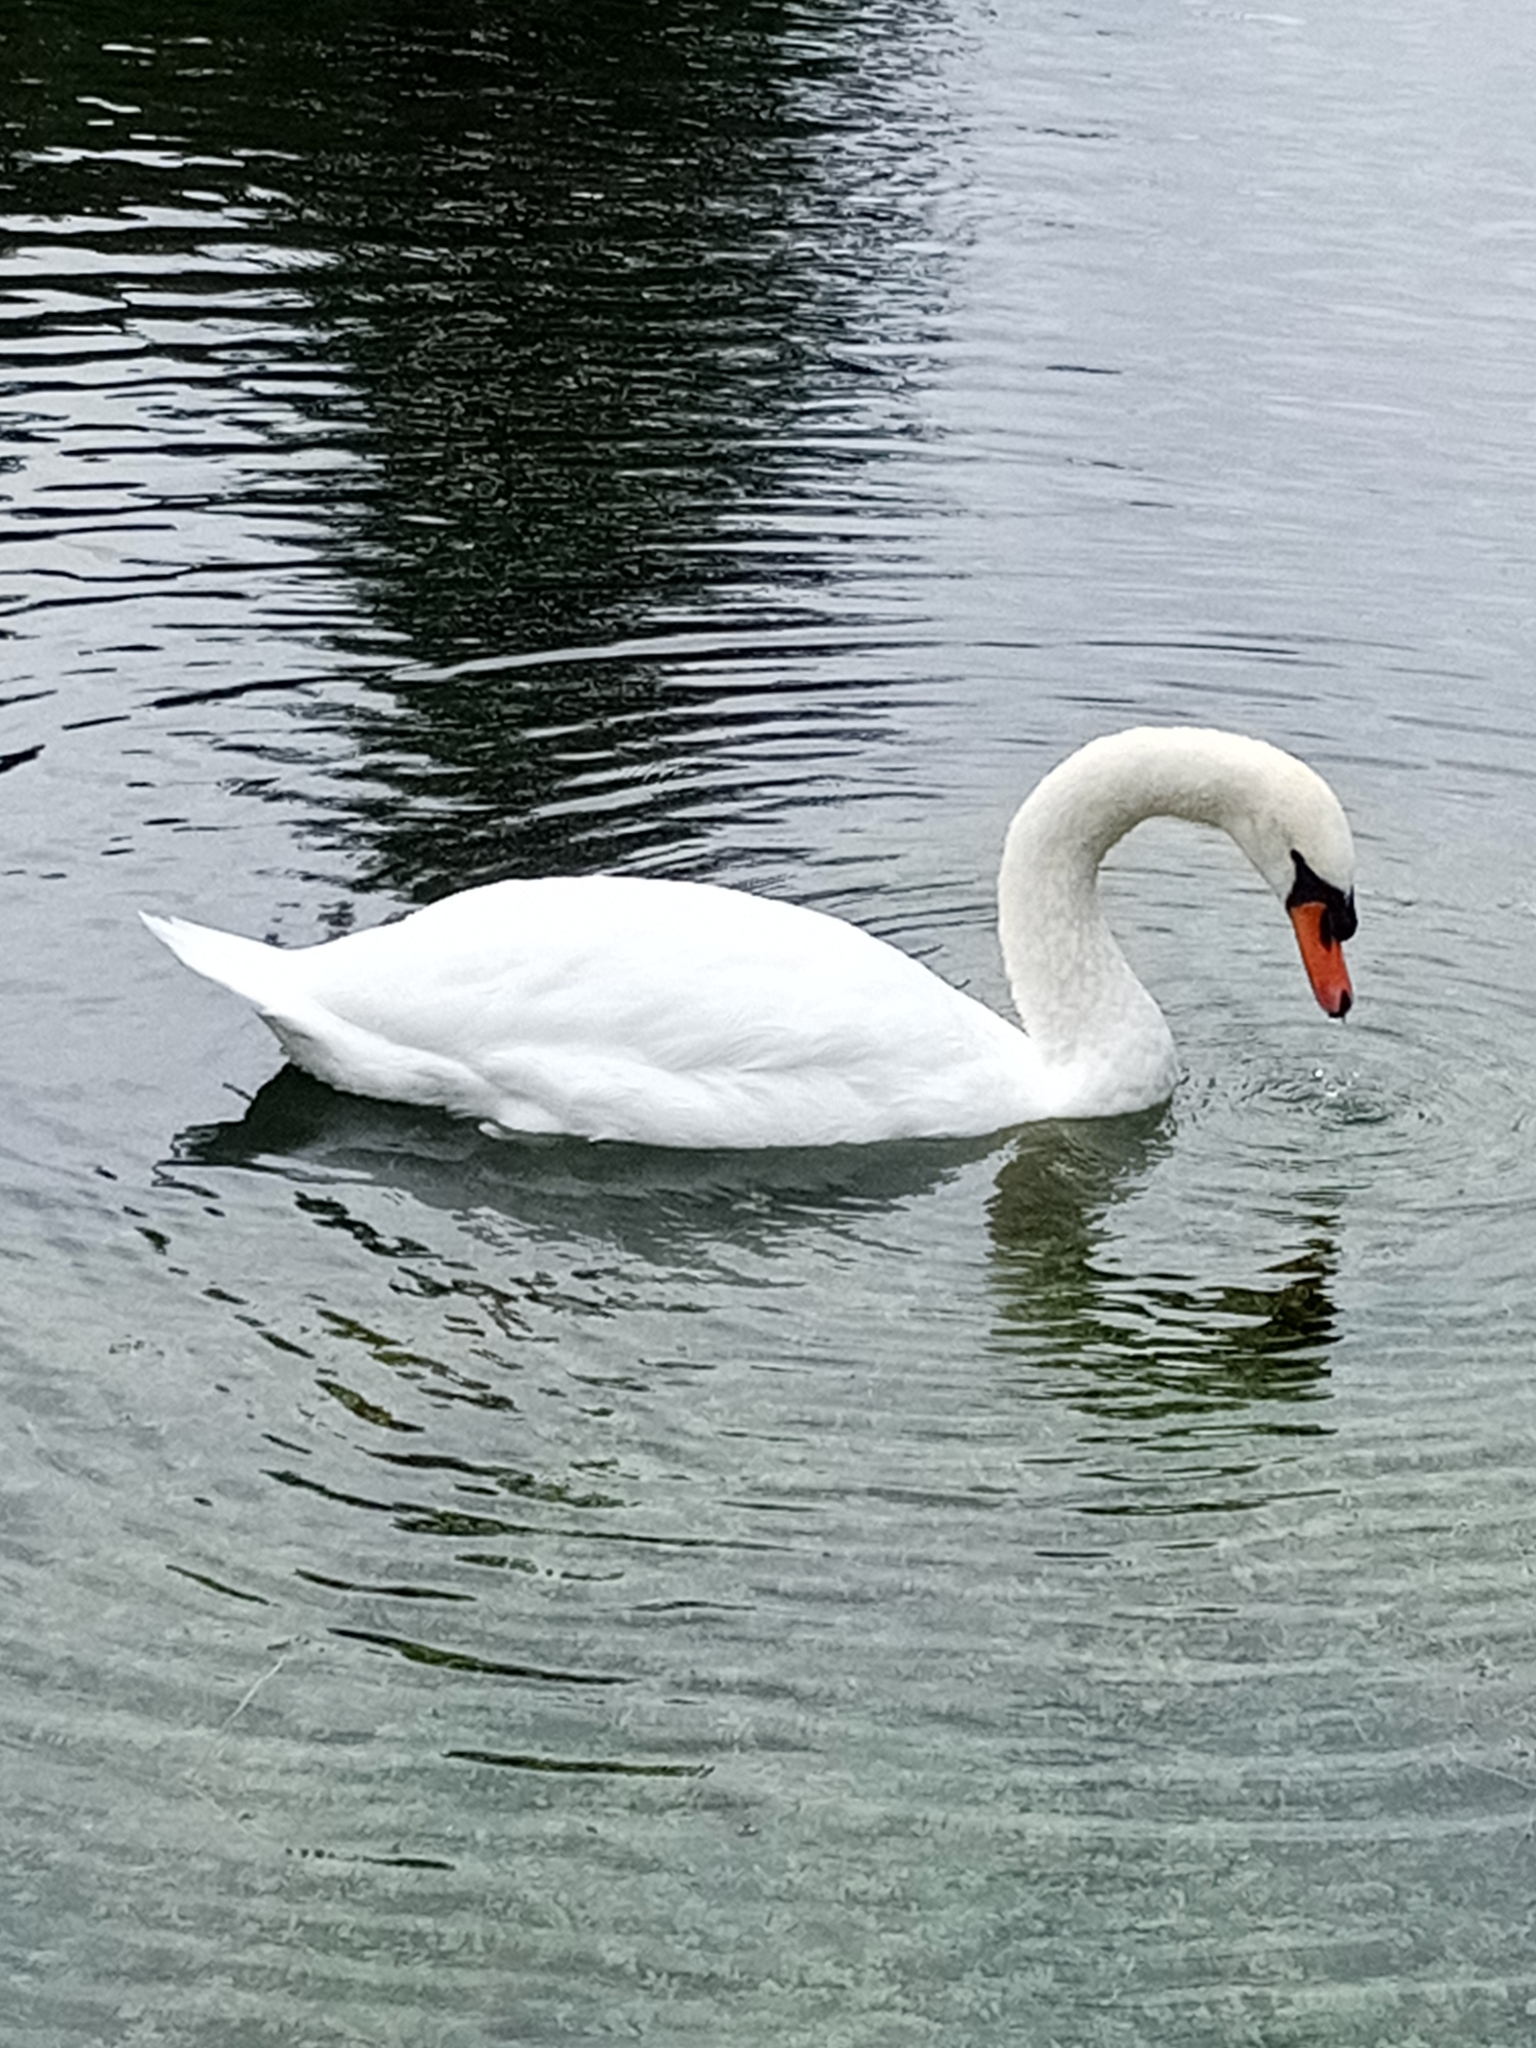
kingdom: Animalia
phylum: Chordata
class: Aves
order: Anseriformes
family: Anatidae
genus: Cygnus
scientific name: Cygnus olor
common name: Mute swan
